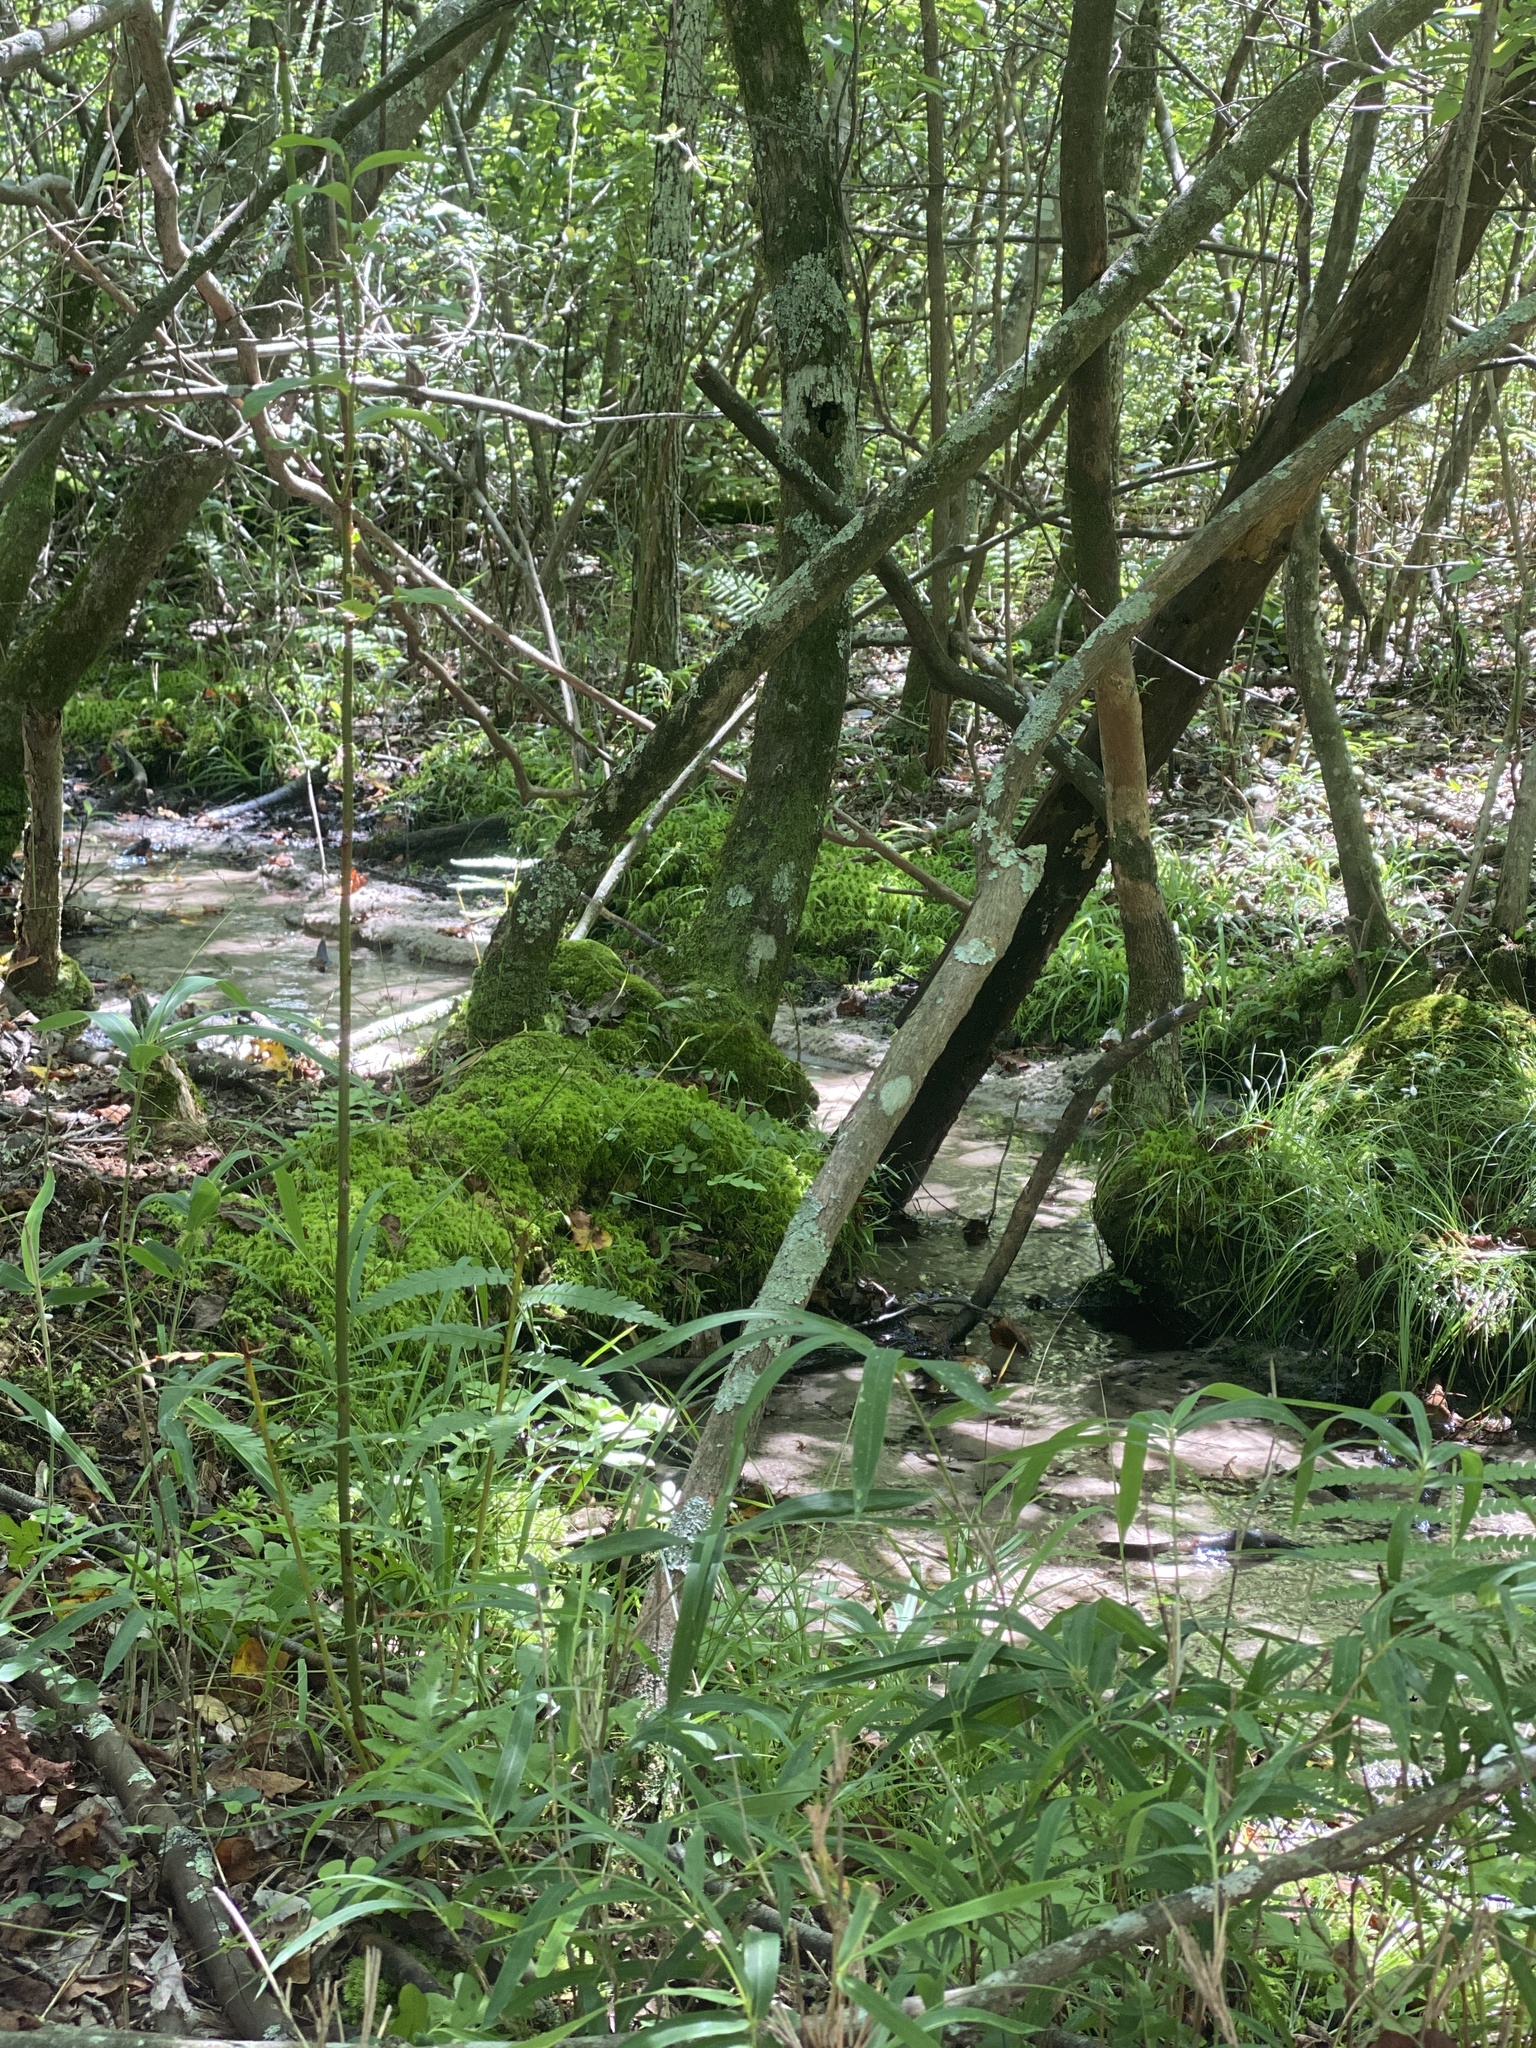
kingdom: Plantae
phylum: Tracheophyta
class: Liliopsida
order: Poales
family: Cyperaceae
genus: Carex
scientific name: Carex collinsii
